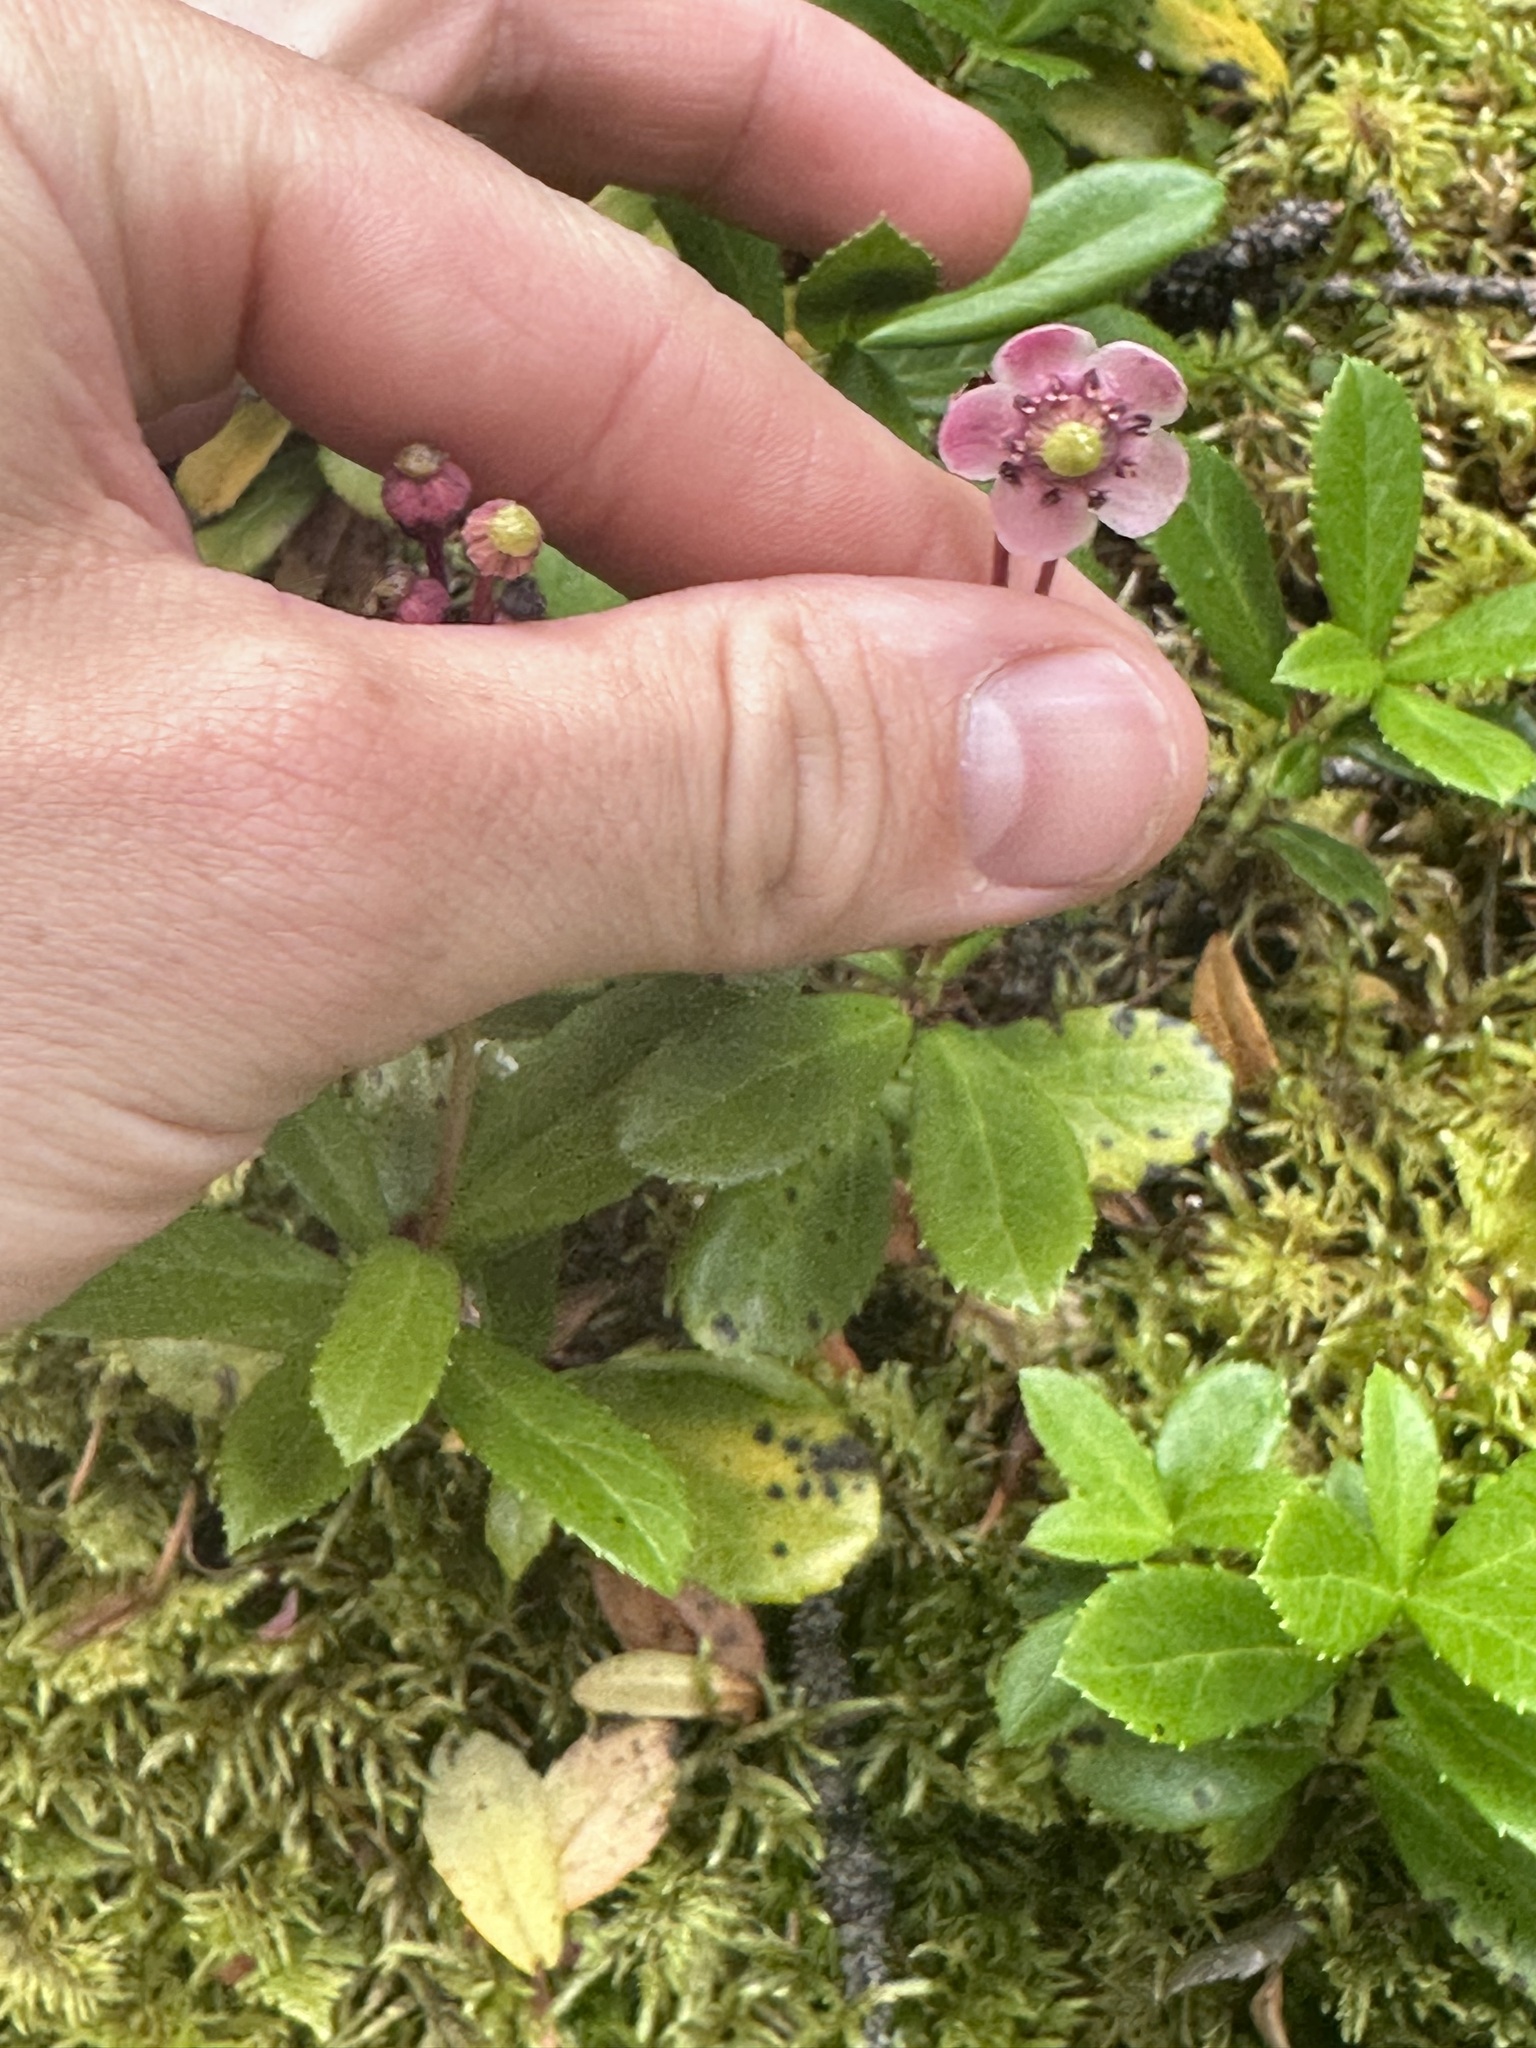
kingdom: Plantae
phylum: Tracheophyta
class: Magnoliopsida
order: Ericales
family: Ericaceae
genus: Chimaphila
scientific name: Chimaphila umbellata
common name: Pipsissewa
